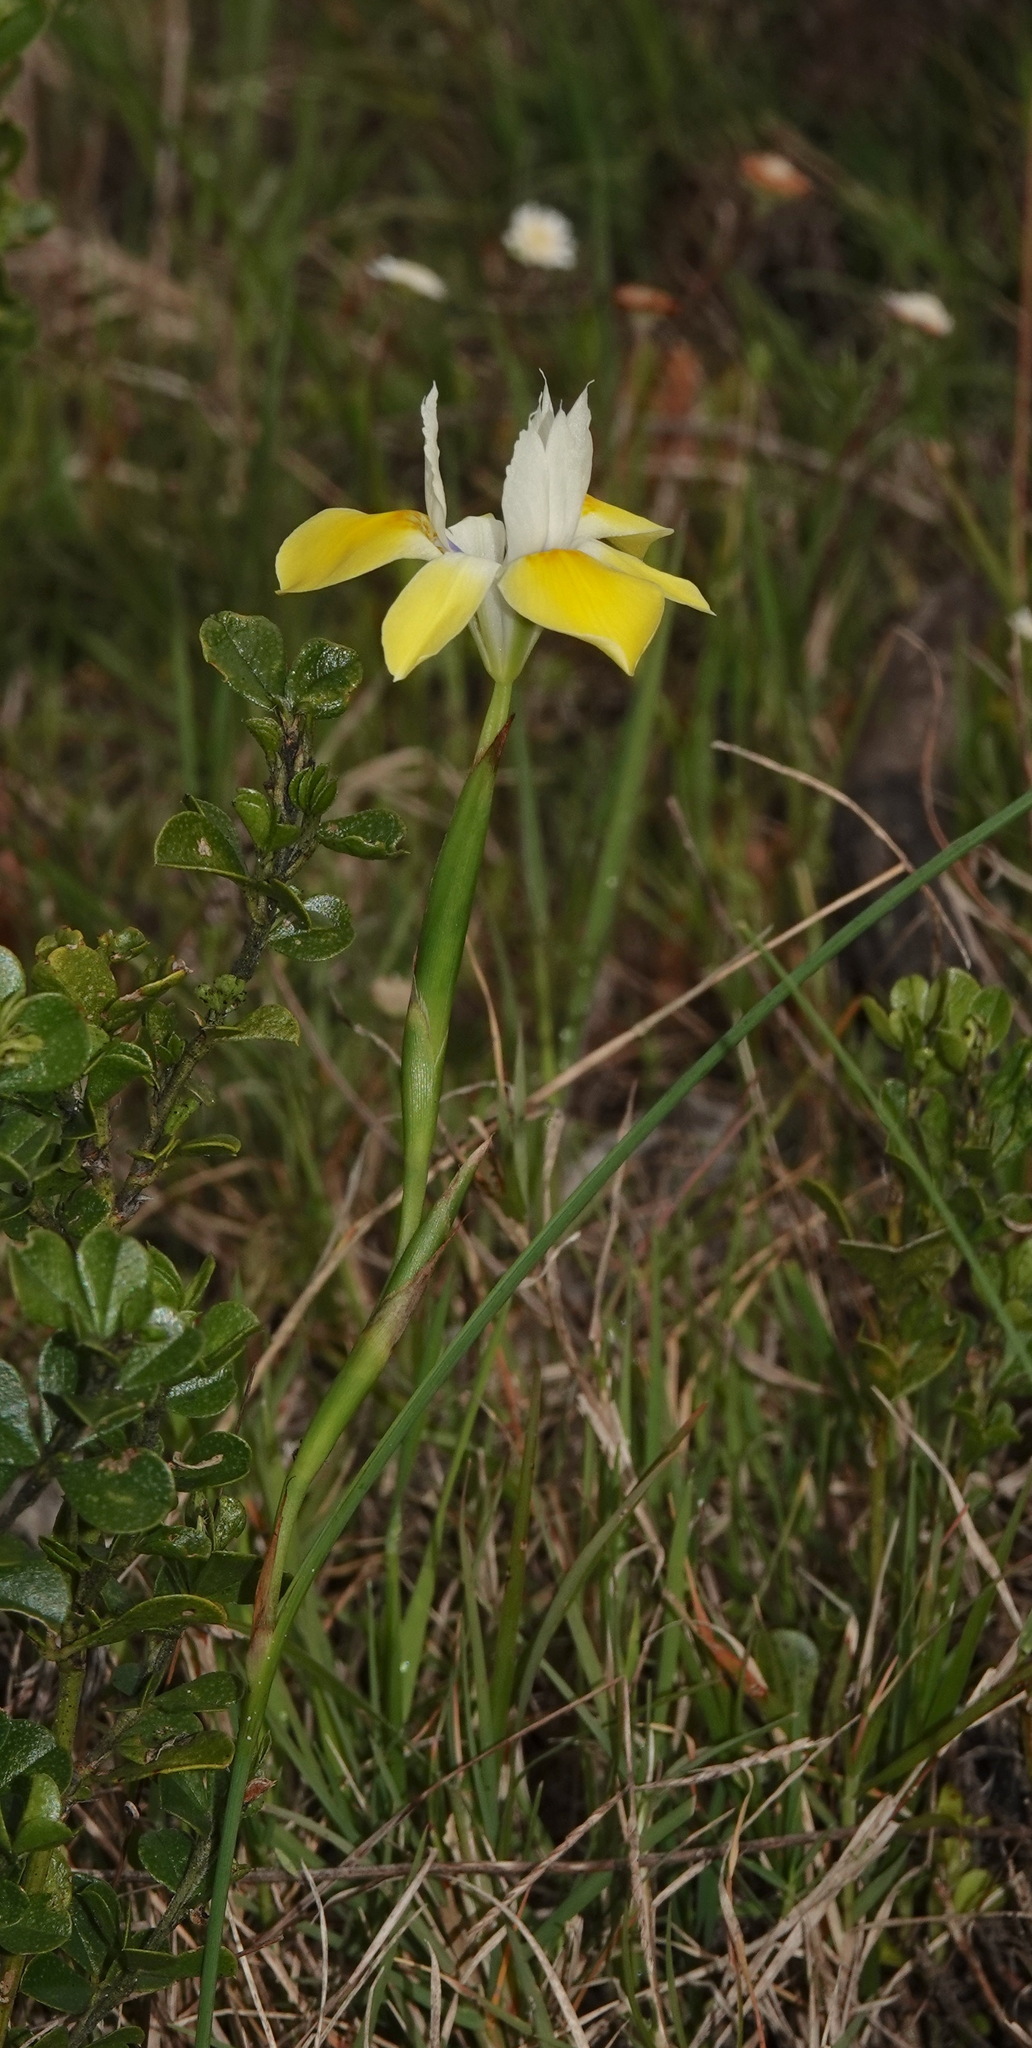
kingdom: Plantae
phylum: Tracheophyta
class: Liliopsida
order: Asparagales
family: Iridaceae
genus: Moraea
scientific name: Moraea fugax
